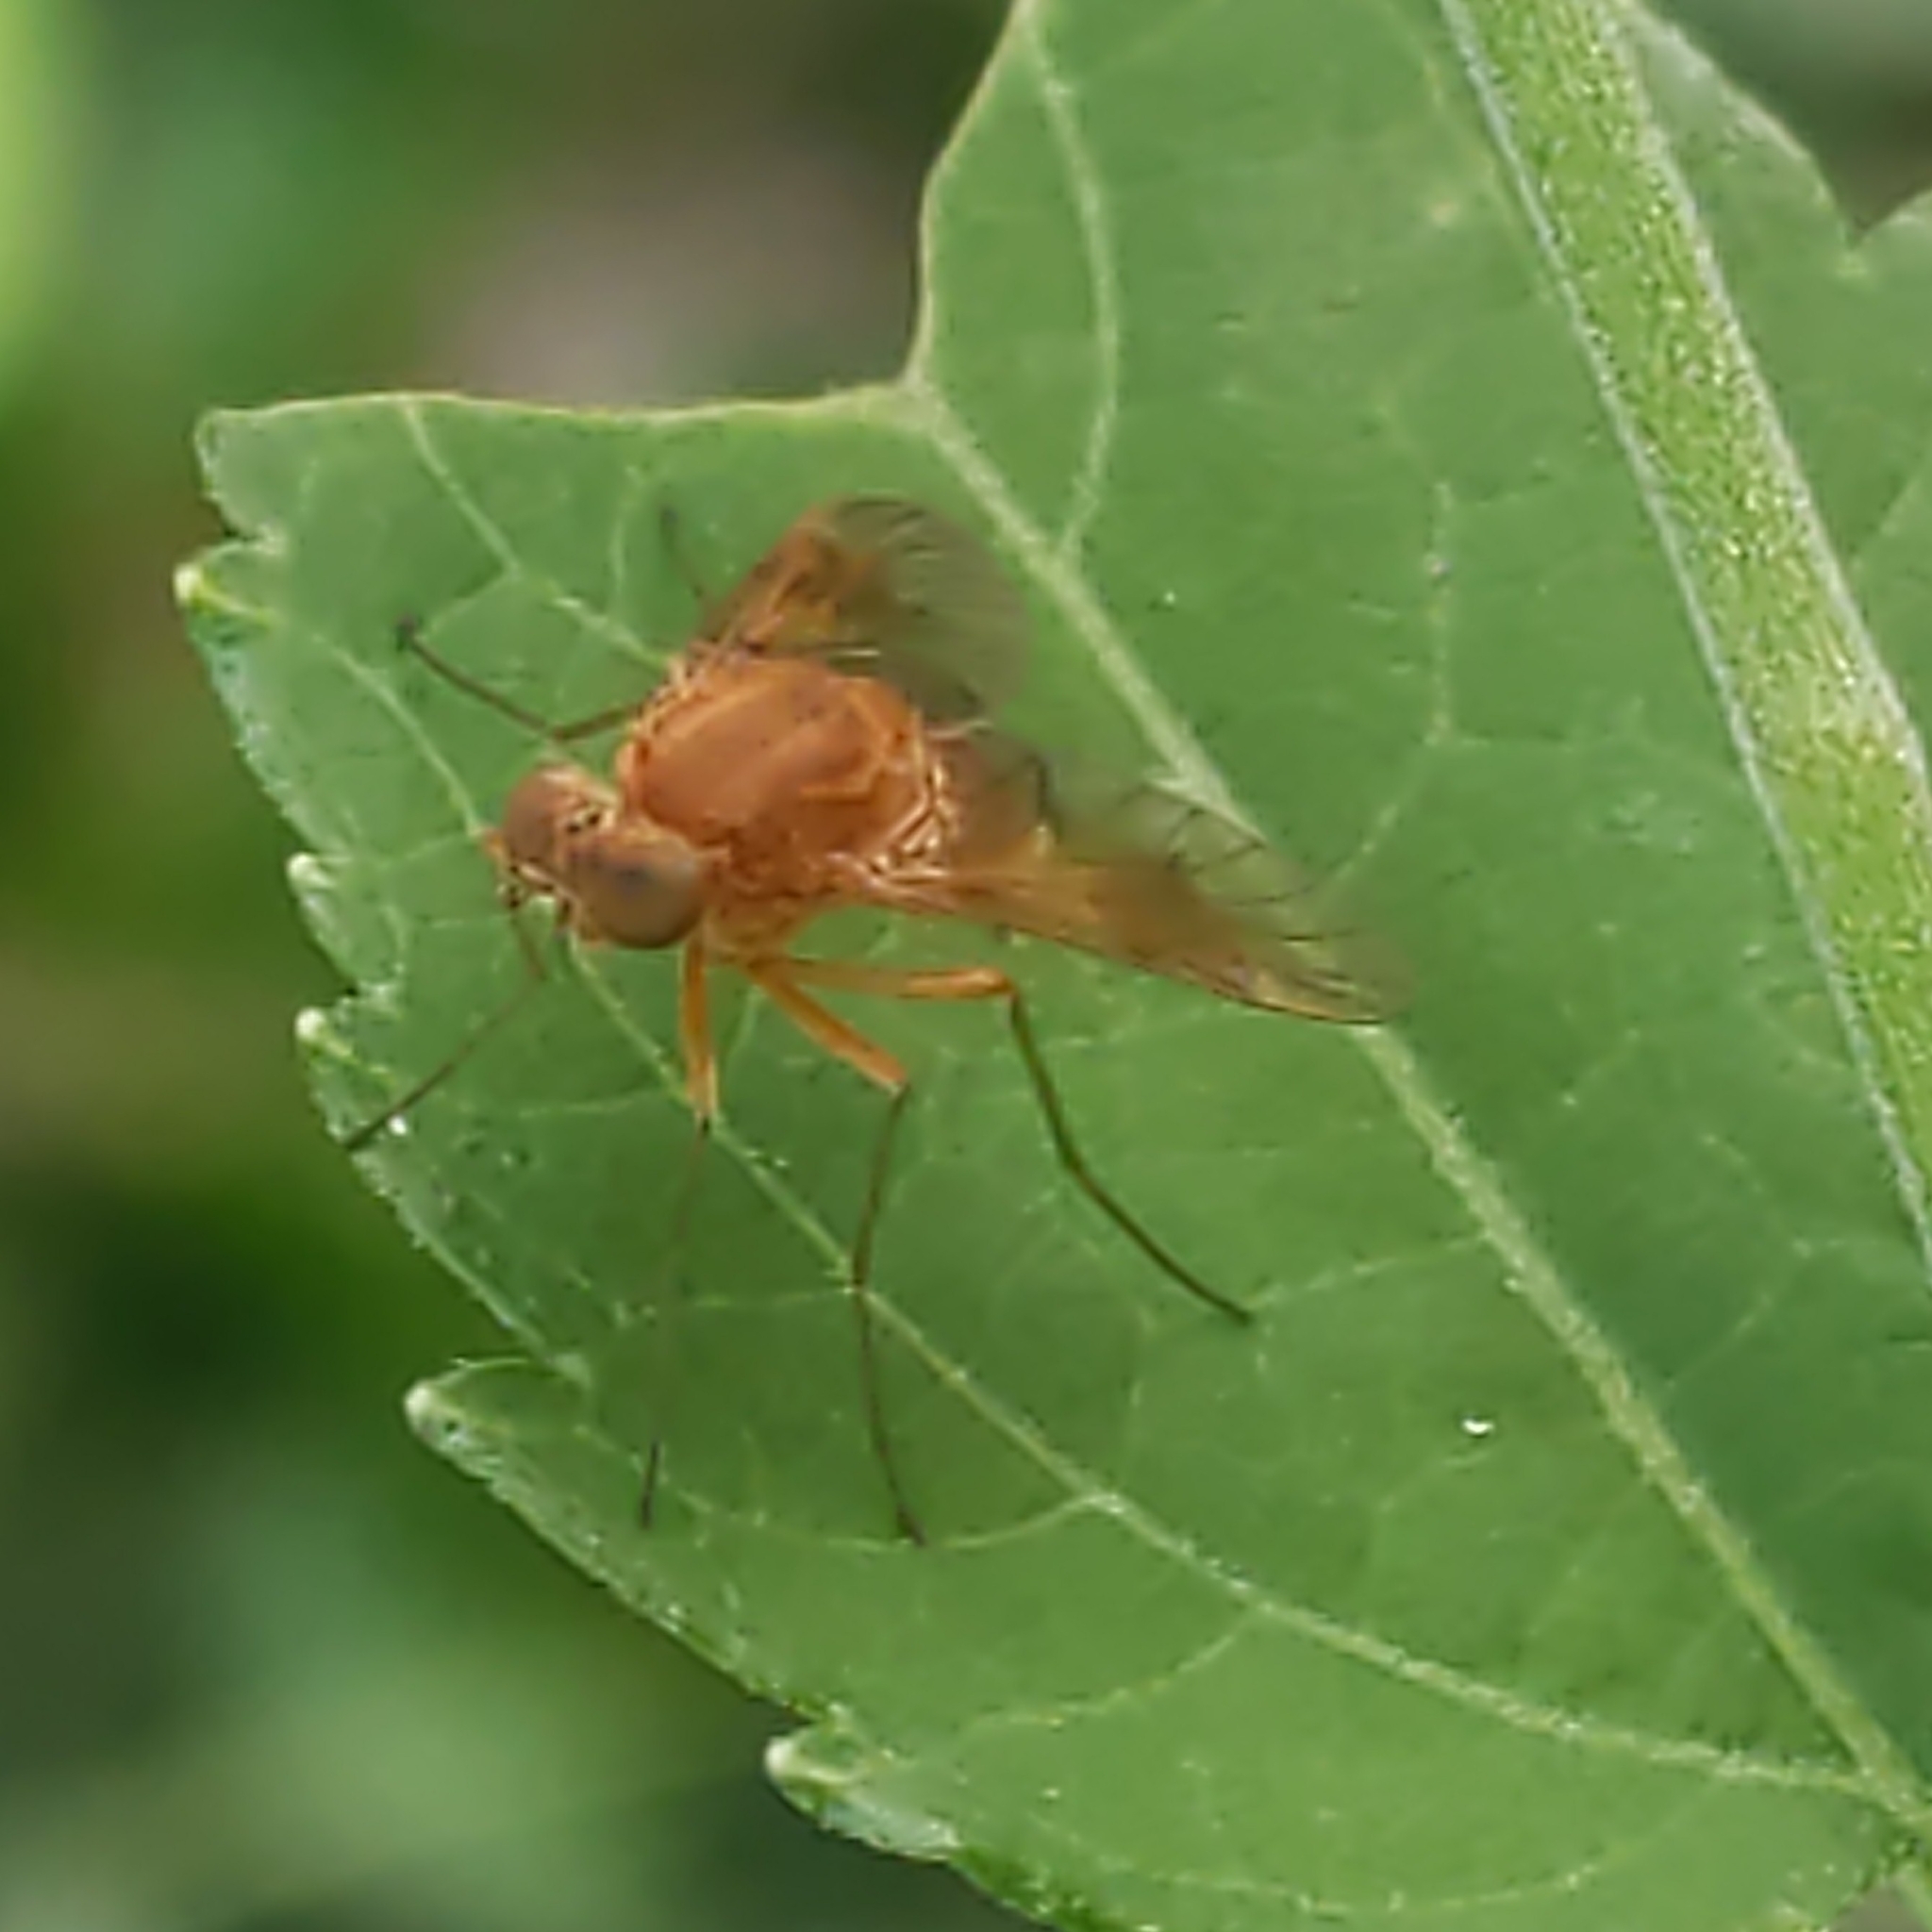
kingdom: Animalia
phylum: Arthropoda
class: Insecta
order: Diptera
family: Rhagionidae
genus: Chrysopilus
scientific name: Chrysopilus quadratus
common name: Quadrate snipe fly
